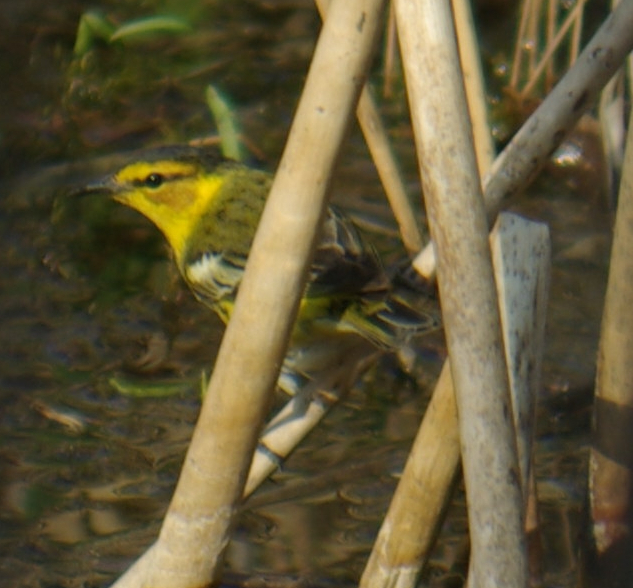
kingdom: Animalia
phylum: Chordata
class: Aves
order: Passeriformes
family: Parulidae
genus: Setophaga
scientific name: Setophaga tigrina
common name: Cape may warbler
